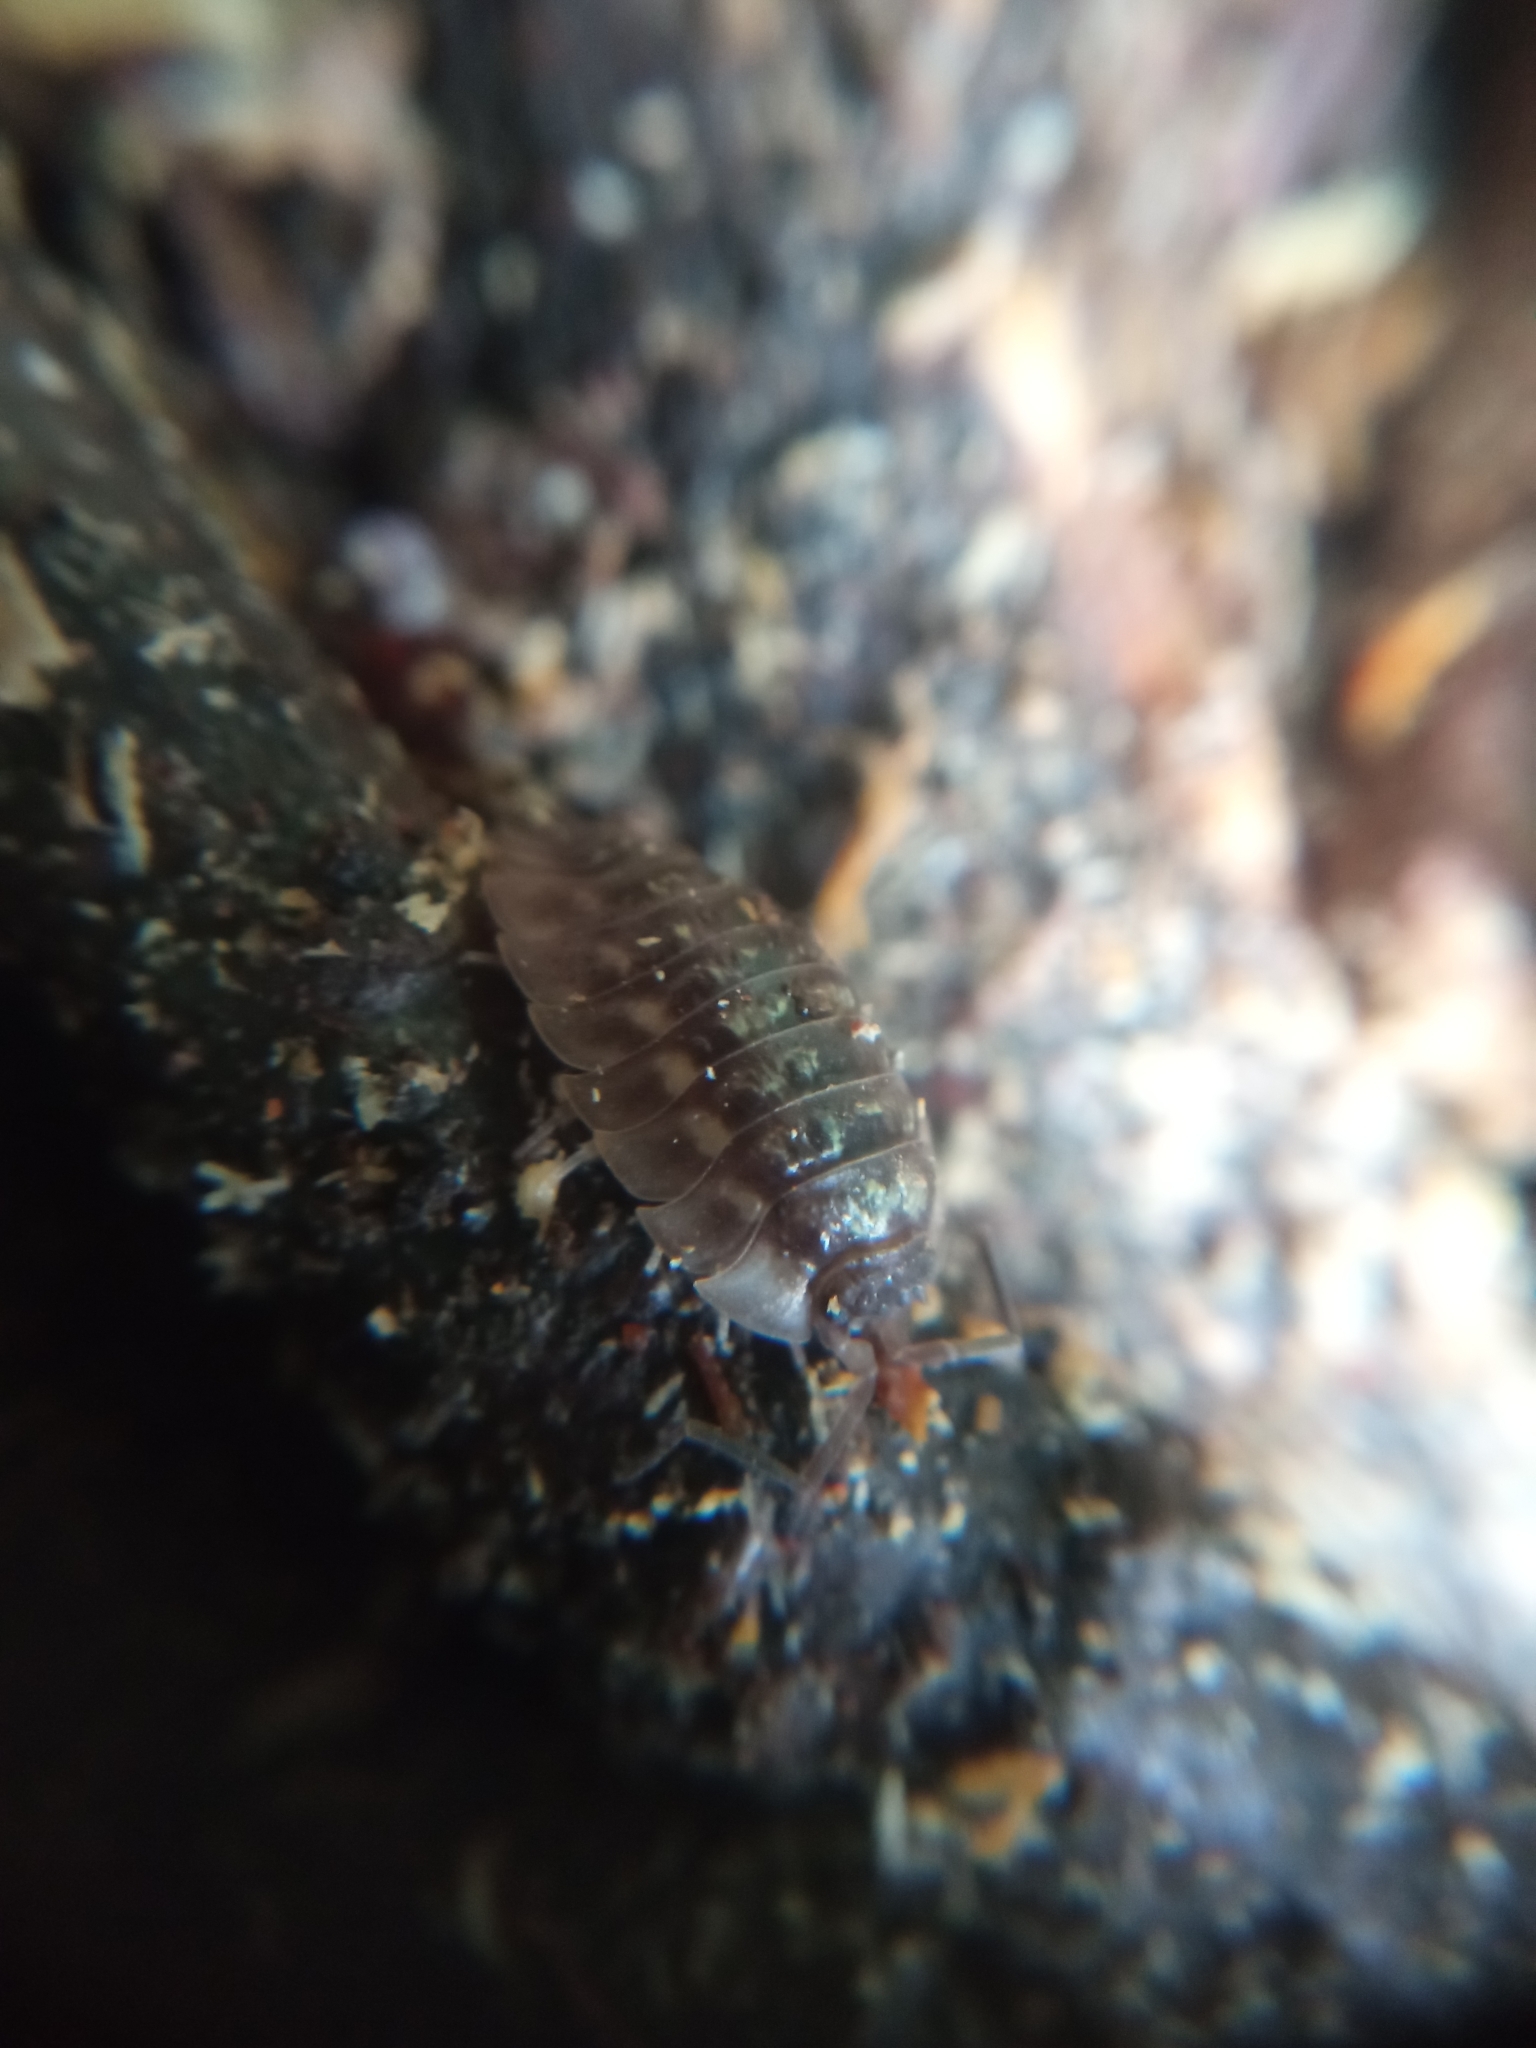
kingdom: Animalia
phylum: Arthropoda
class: Malacostraca
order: Isopoda
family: Oniscidae
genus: Oniscus
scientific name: Oniscus asellus
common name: Common shiny woodlouse
